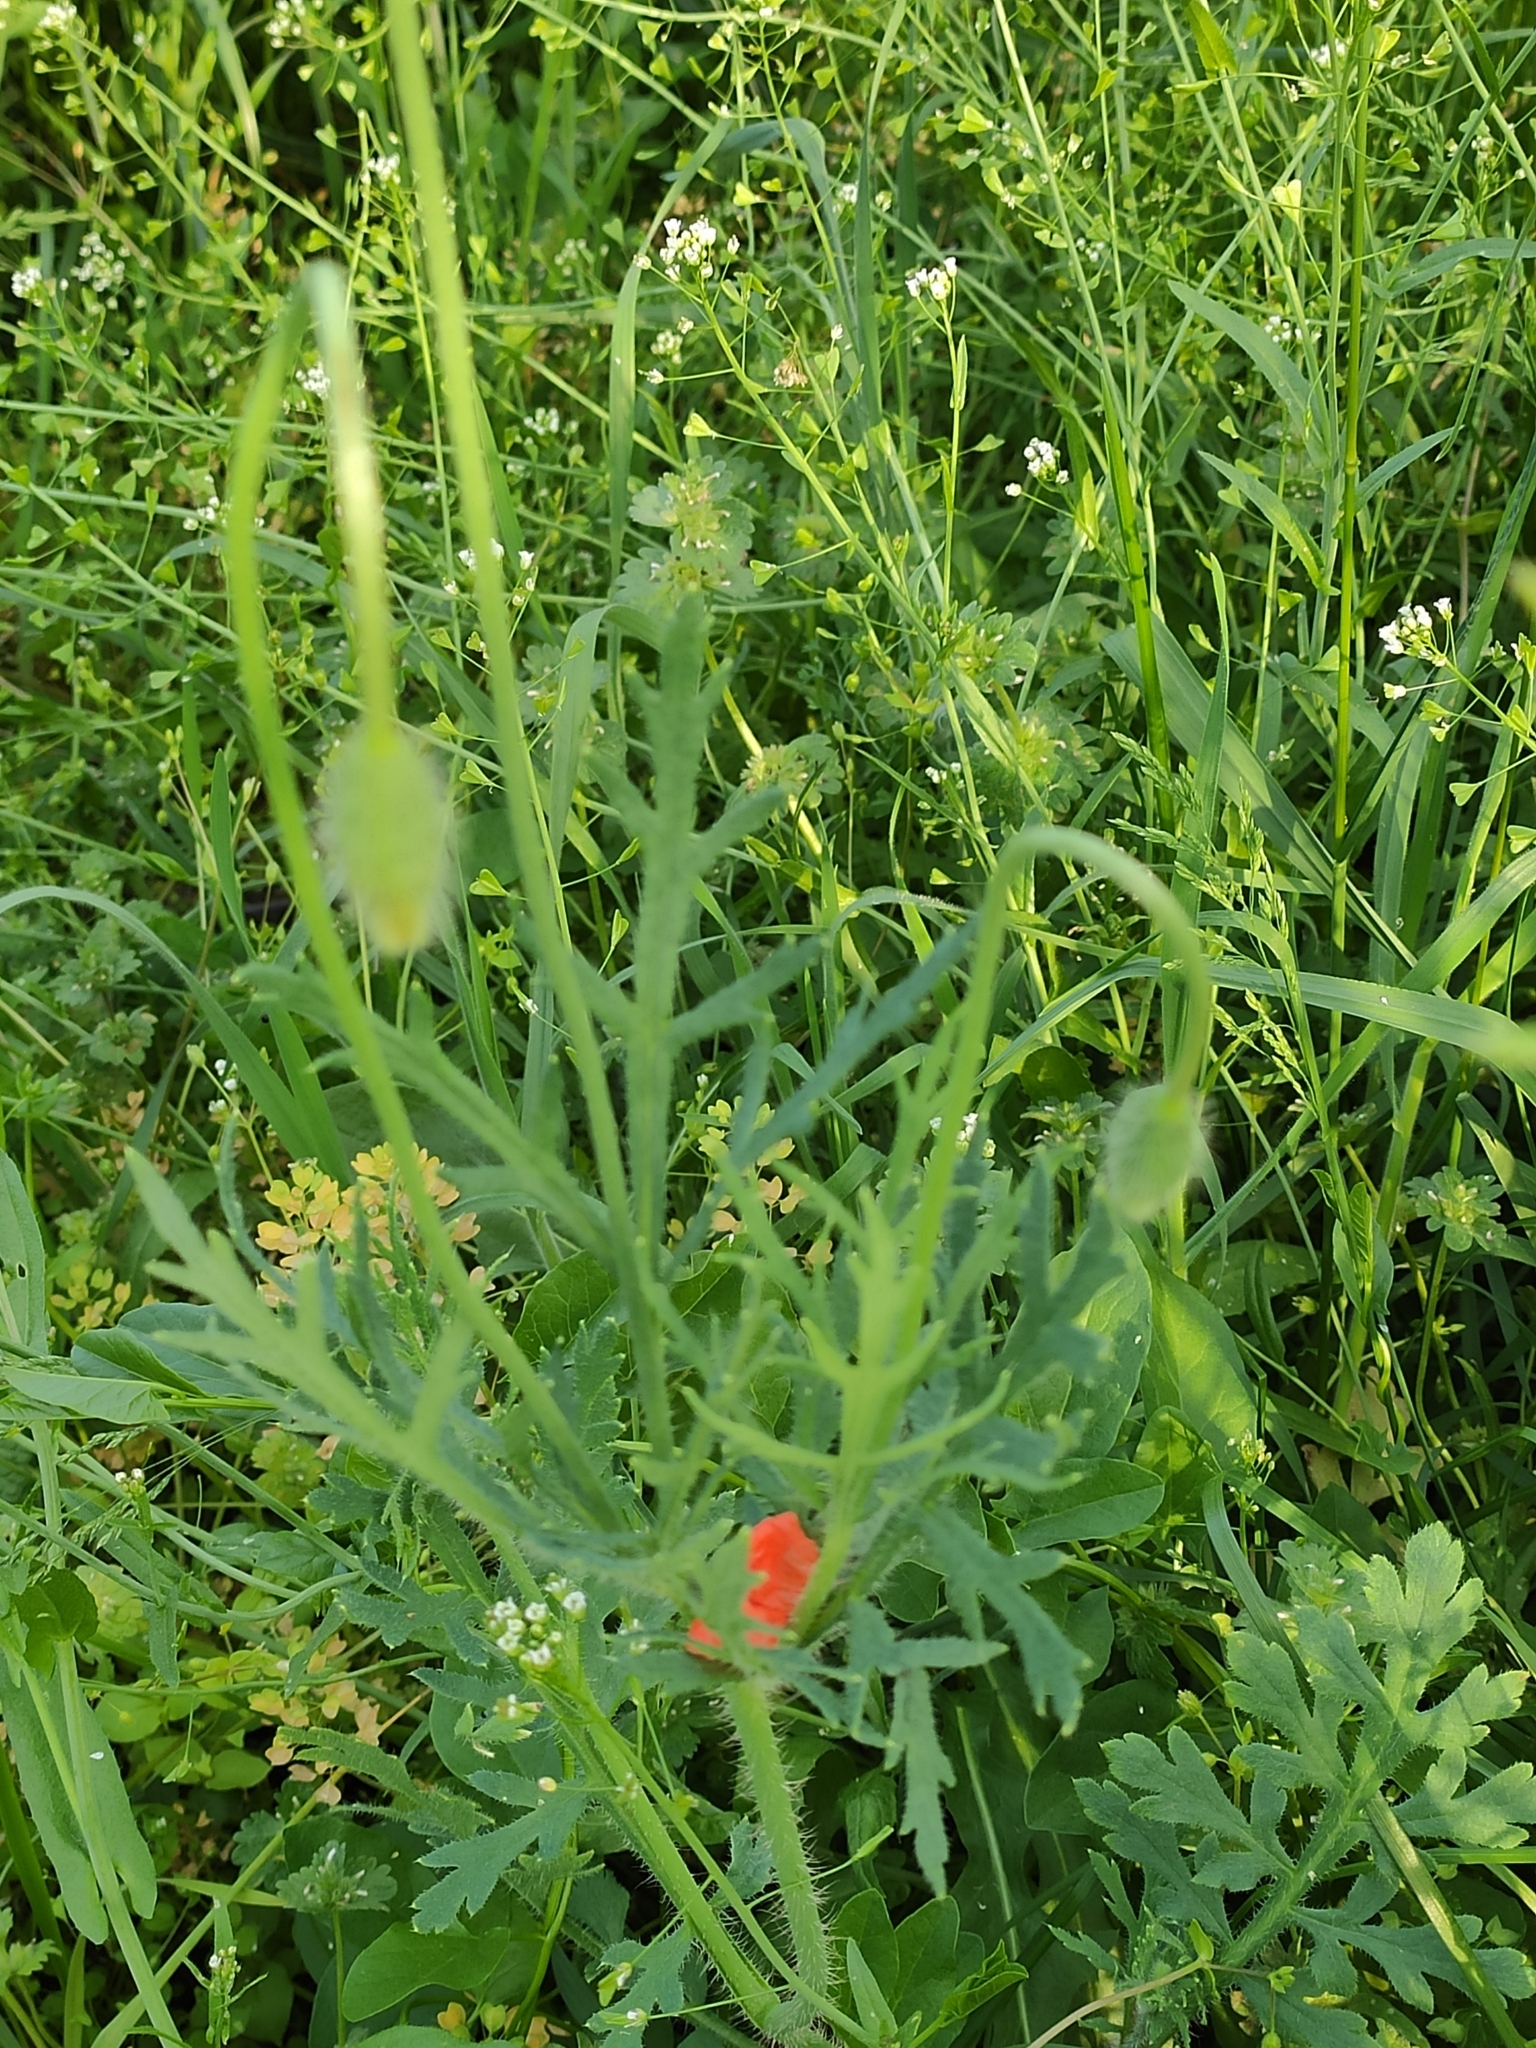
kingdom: Plantae
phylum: Tracheophyta
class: Magnoliopsida
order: Ranunculales
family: Papaveraceae
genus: Papaver
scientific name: Papaver dubium
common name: Long-headed poppy
